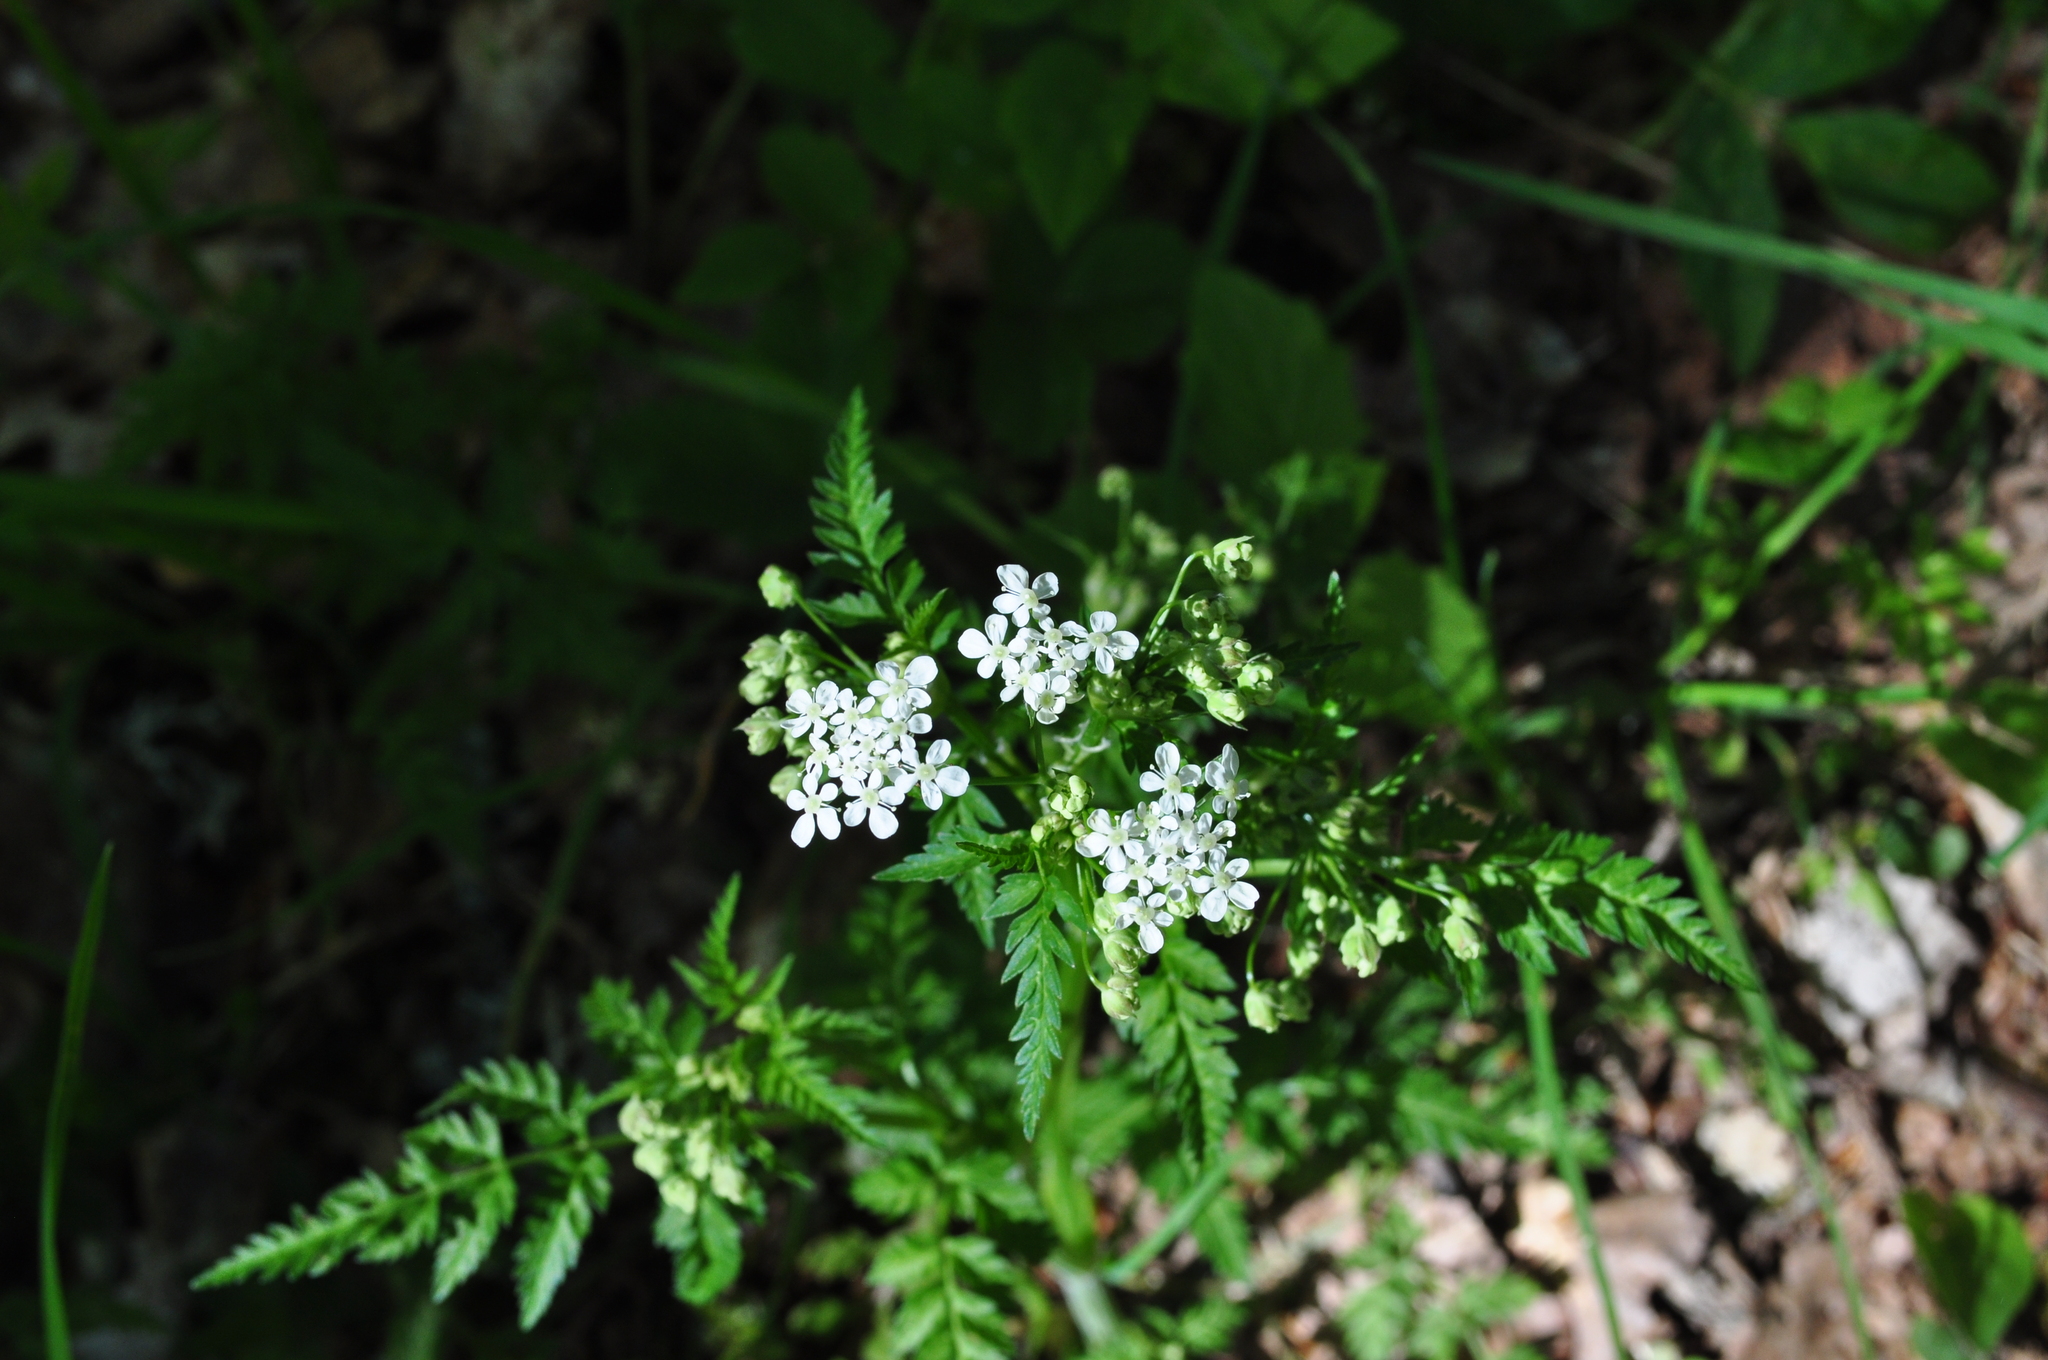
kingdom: Plantae
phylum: Tracheophyta
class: Magnoliopsida
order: Apiales
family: Apiaceae
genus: Anthriscus
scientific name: Anthriscus sylvestris
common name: Cow parsley
